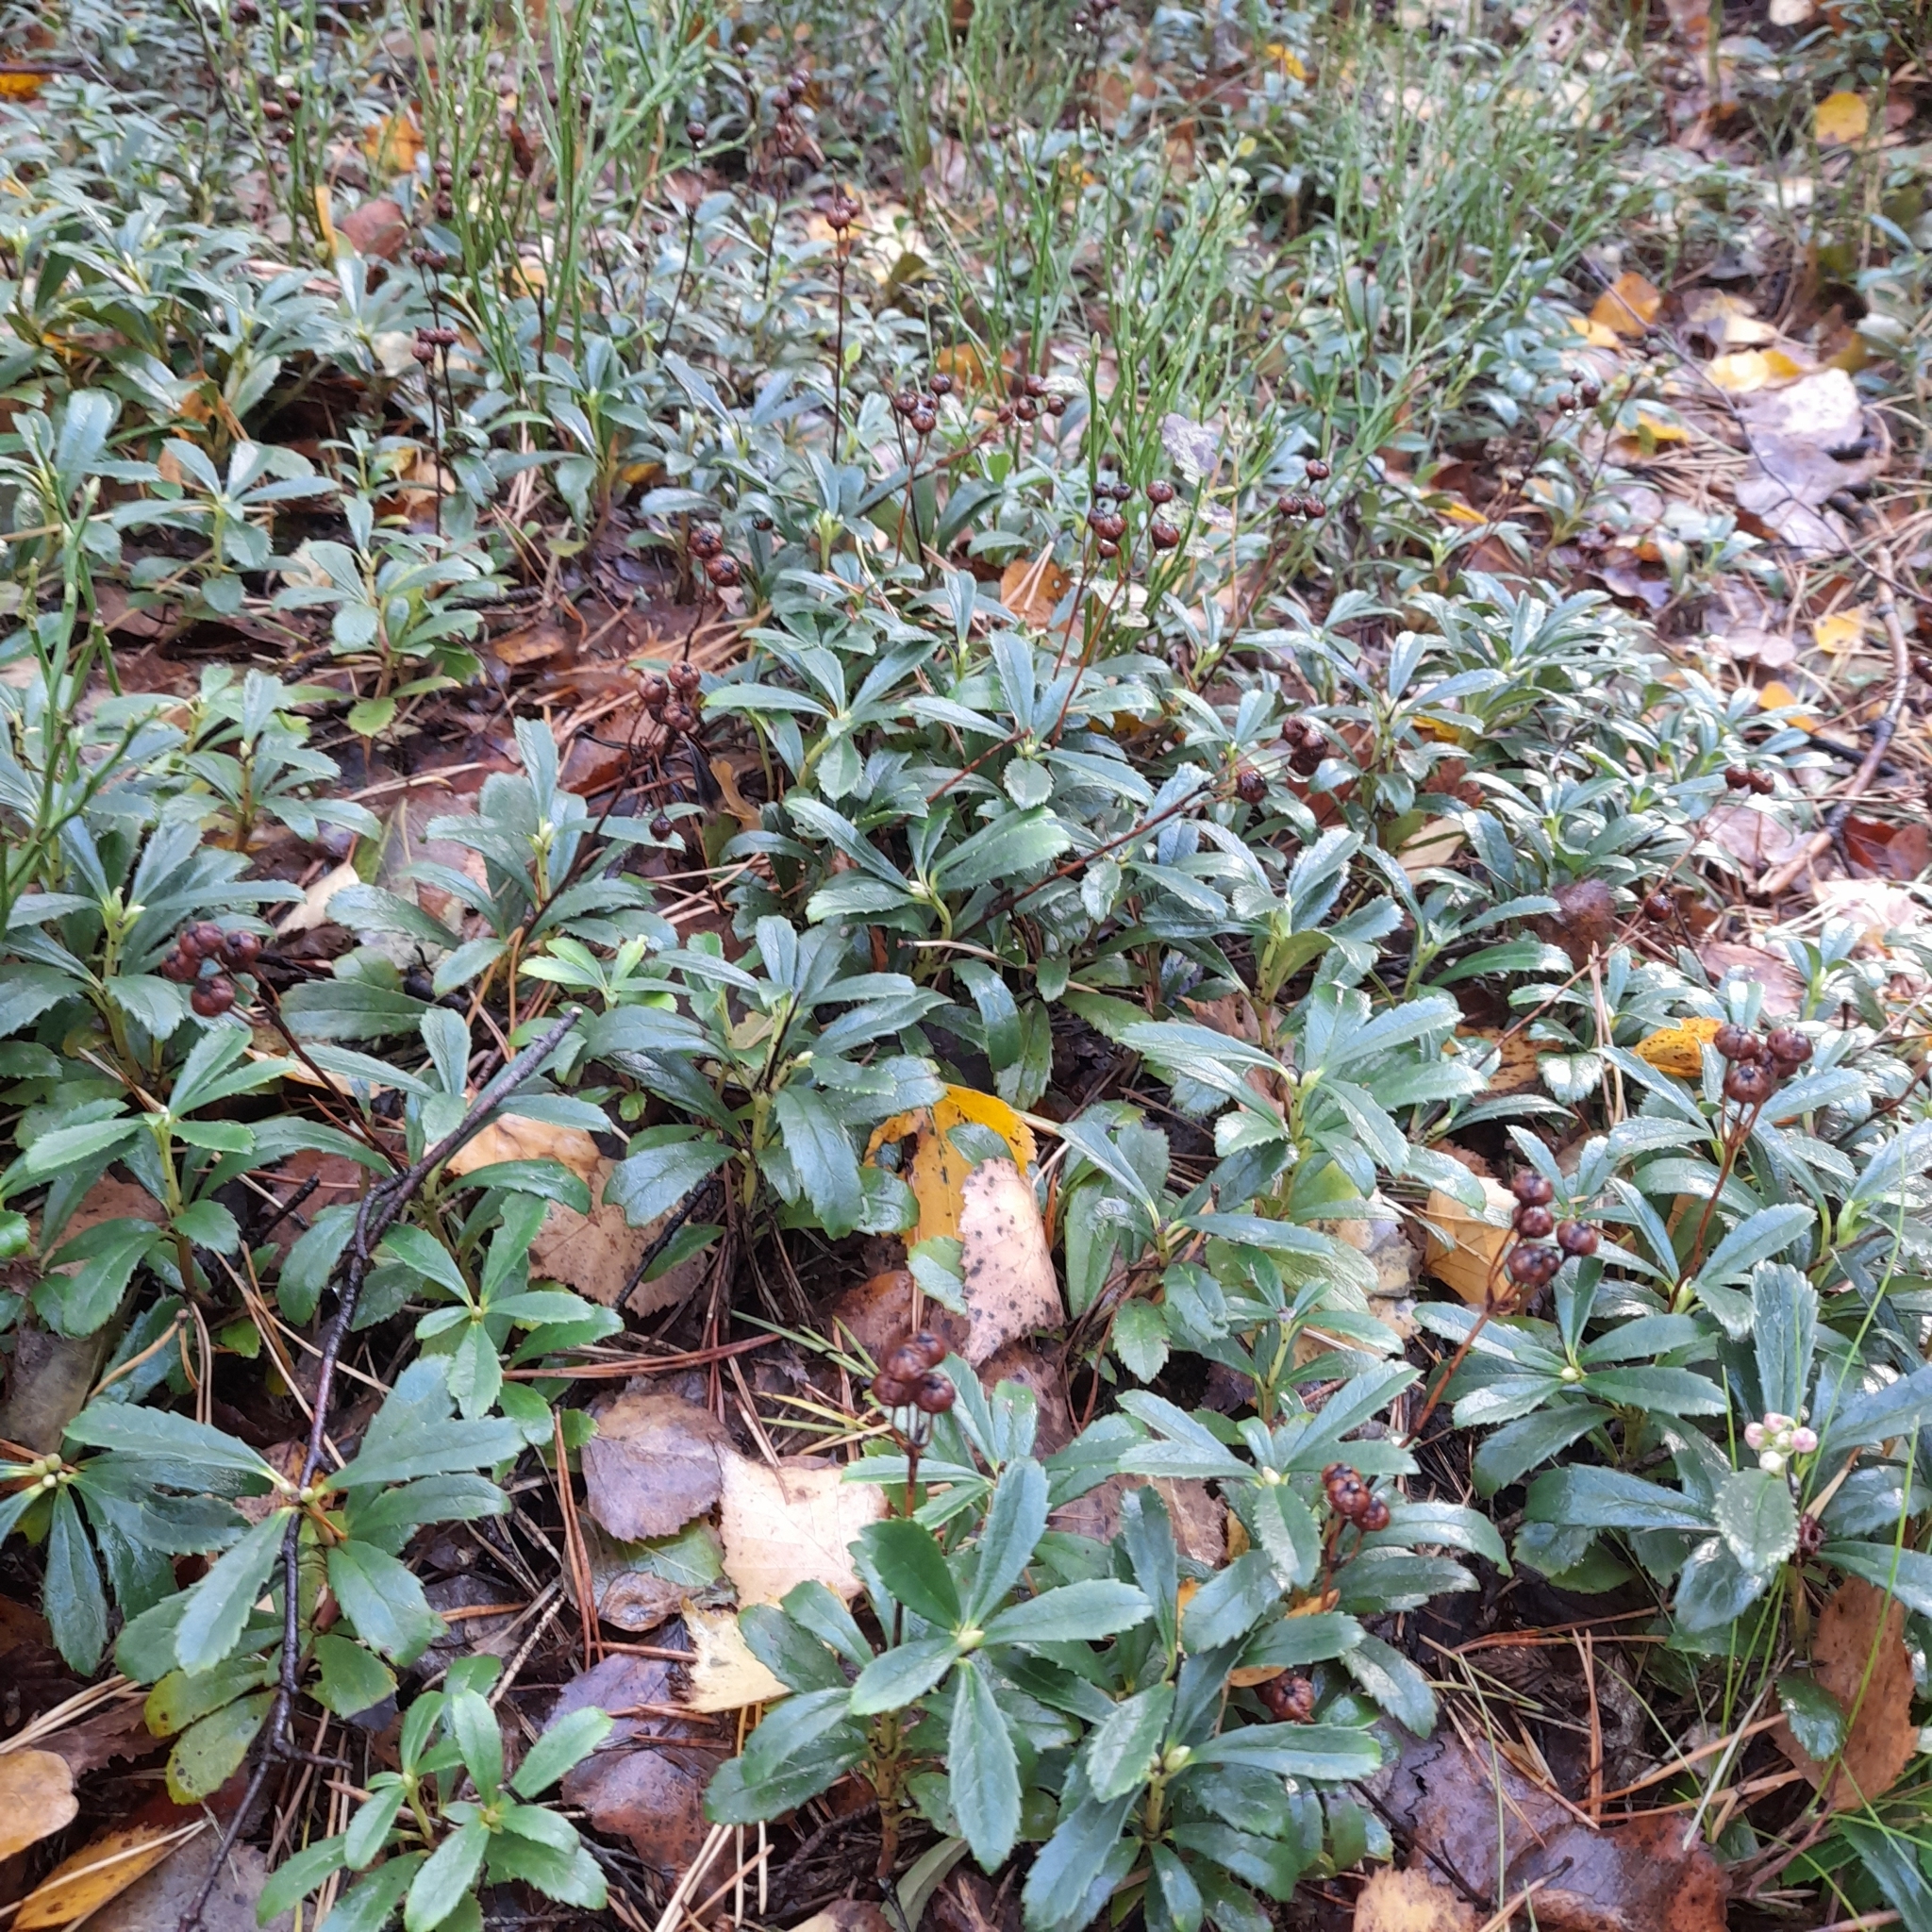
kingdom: Plantae
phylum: Tracheophyta
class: Magnoliopsida
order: Ericales
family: Ericaceae
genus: Chimaphila
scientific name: Chimaphila umbellata
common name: Pipsissewa
